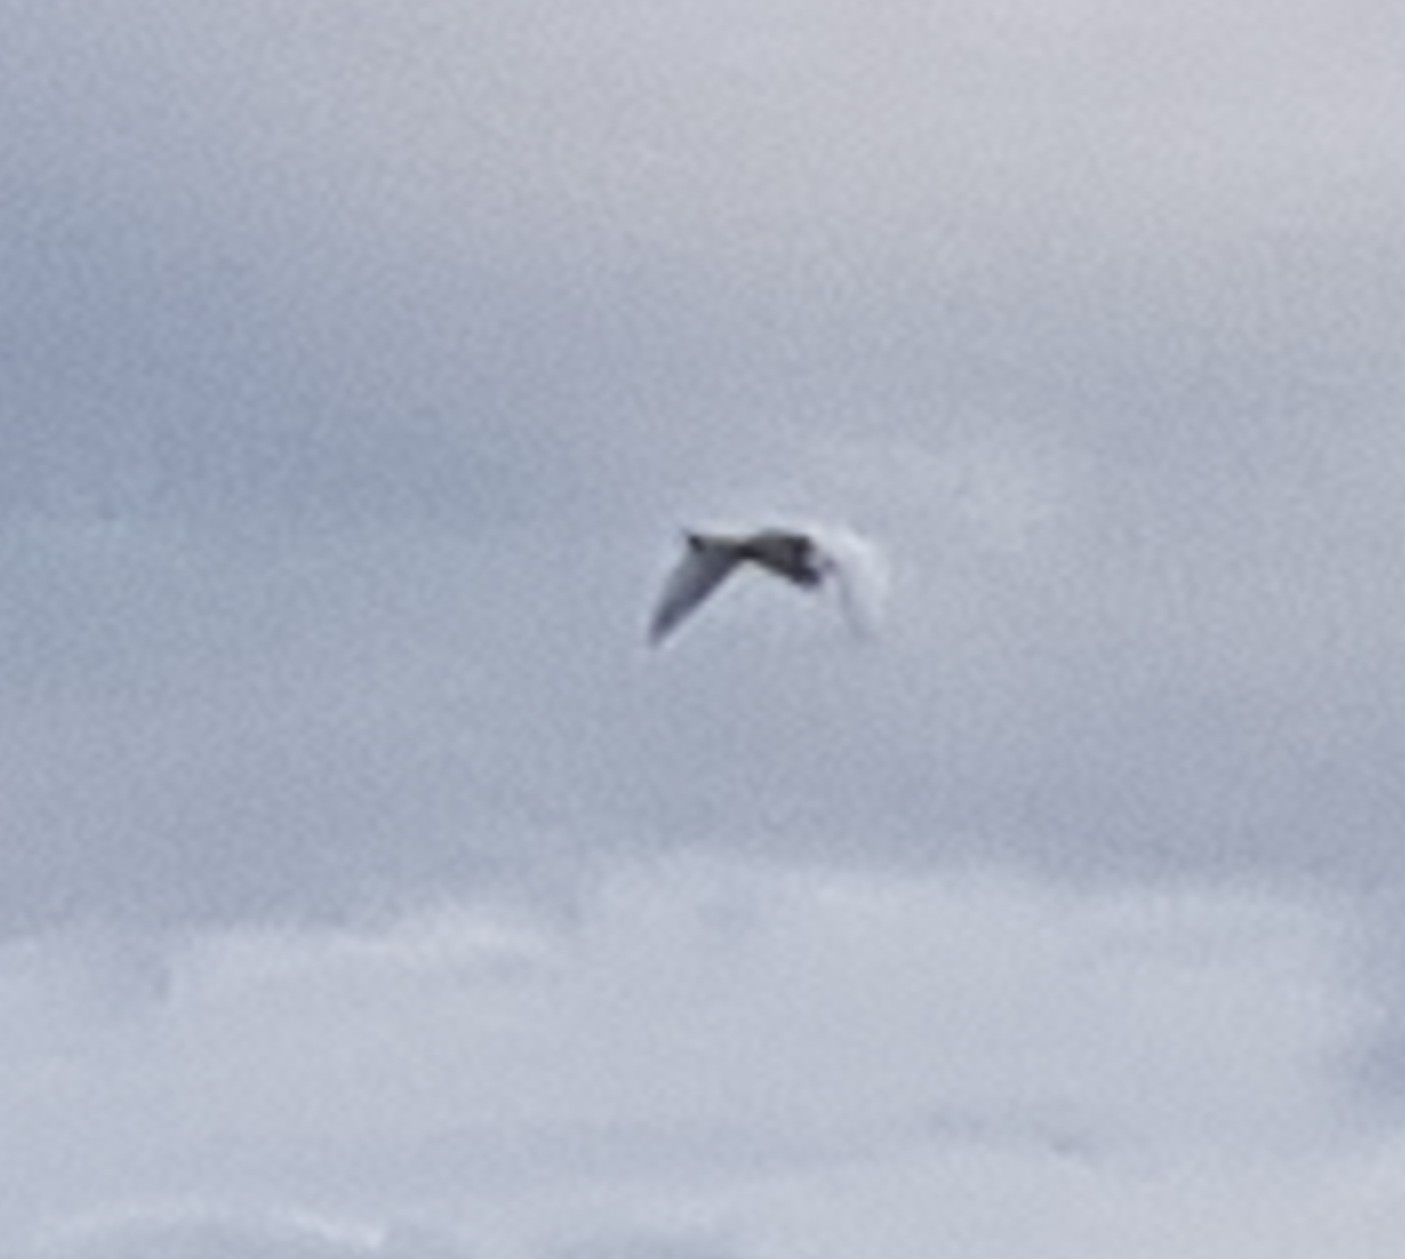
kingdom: Animalia
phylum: Chordata
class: Aves
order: Pelecaniformes
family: Ardeidae
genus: Egretta
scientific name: Egretta garzetta
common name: Little egret
